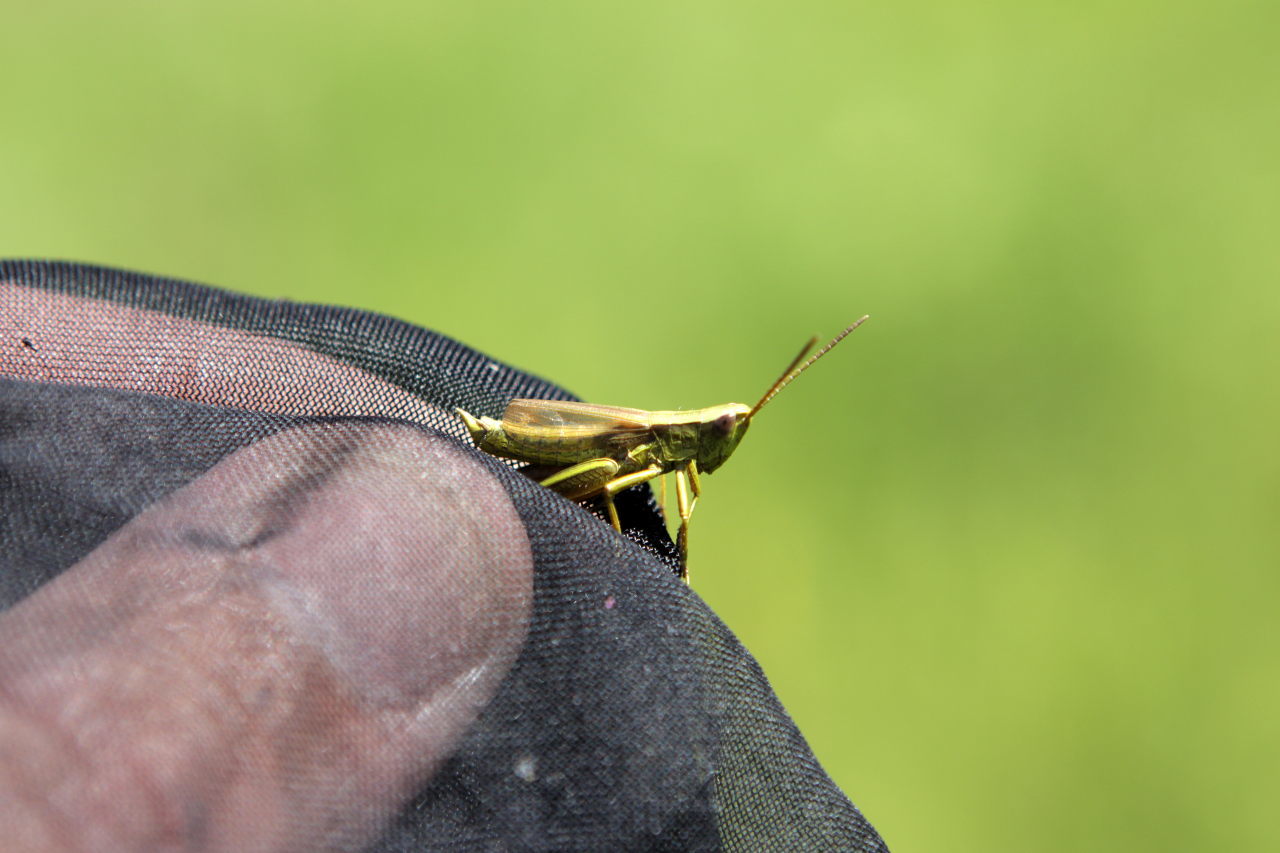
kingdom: Animalia
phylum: Arthropoda
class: Insecta
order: Orthoptera
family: Acrididae
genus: Chrysochraon
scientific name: Chrysochraon dispar
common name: Large gold grasshopper
